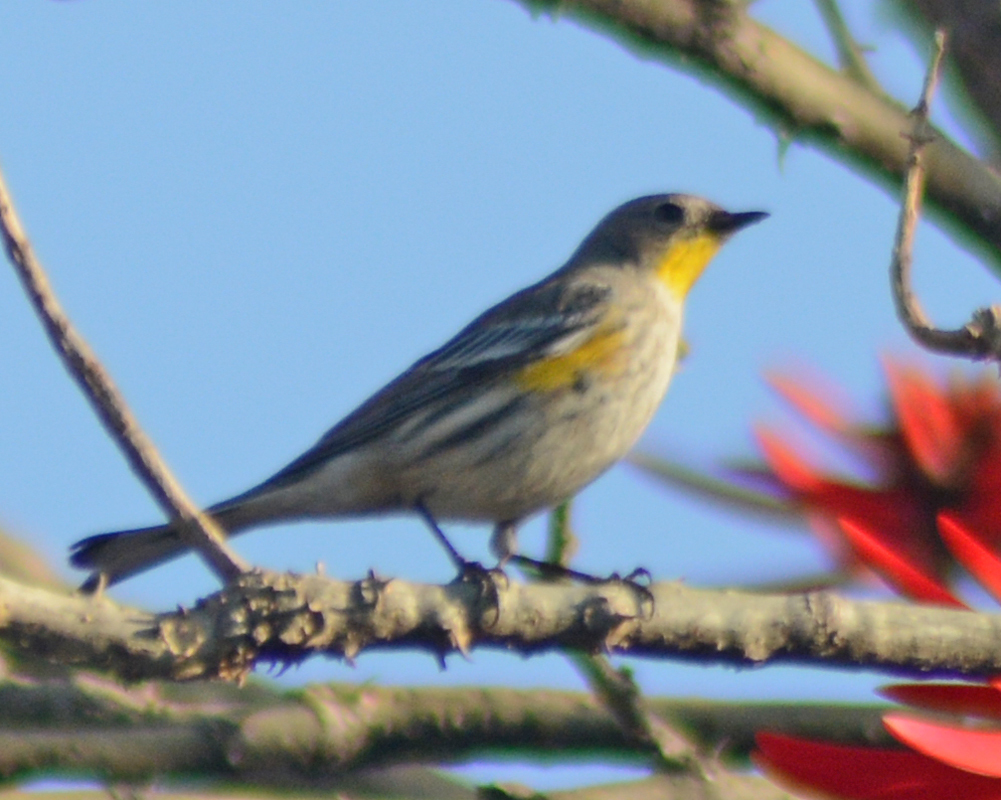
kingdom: Animalia
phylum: Chordata
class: Aves
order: Passeriformes
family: Parulidae
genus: Setophaga
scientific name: Setophaga auduboni
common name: Audubon's warbler
